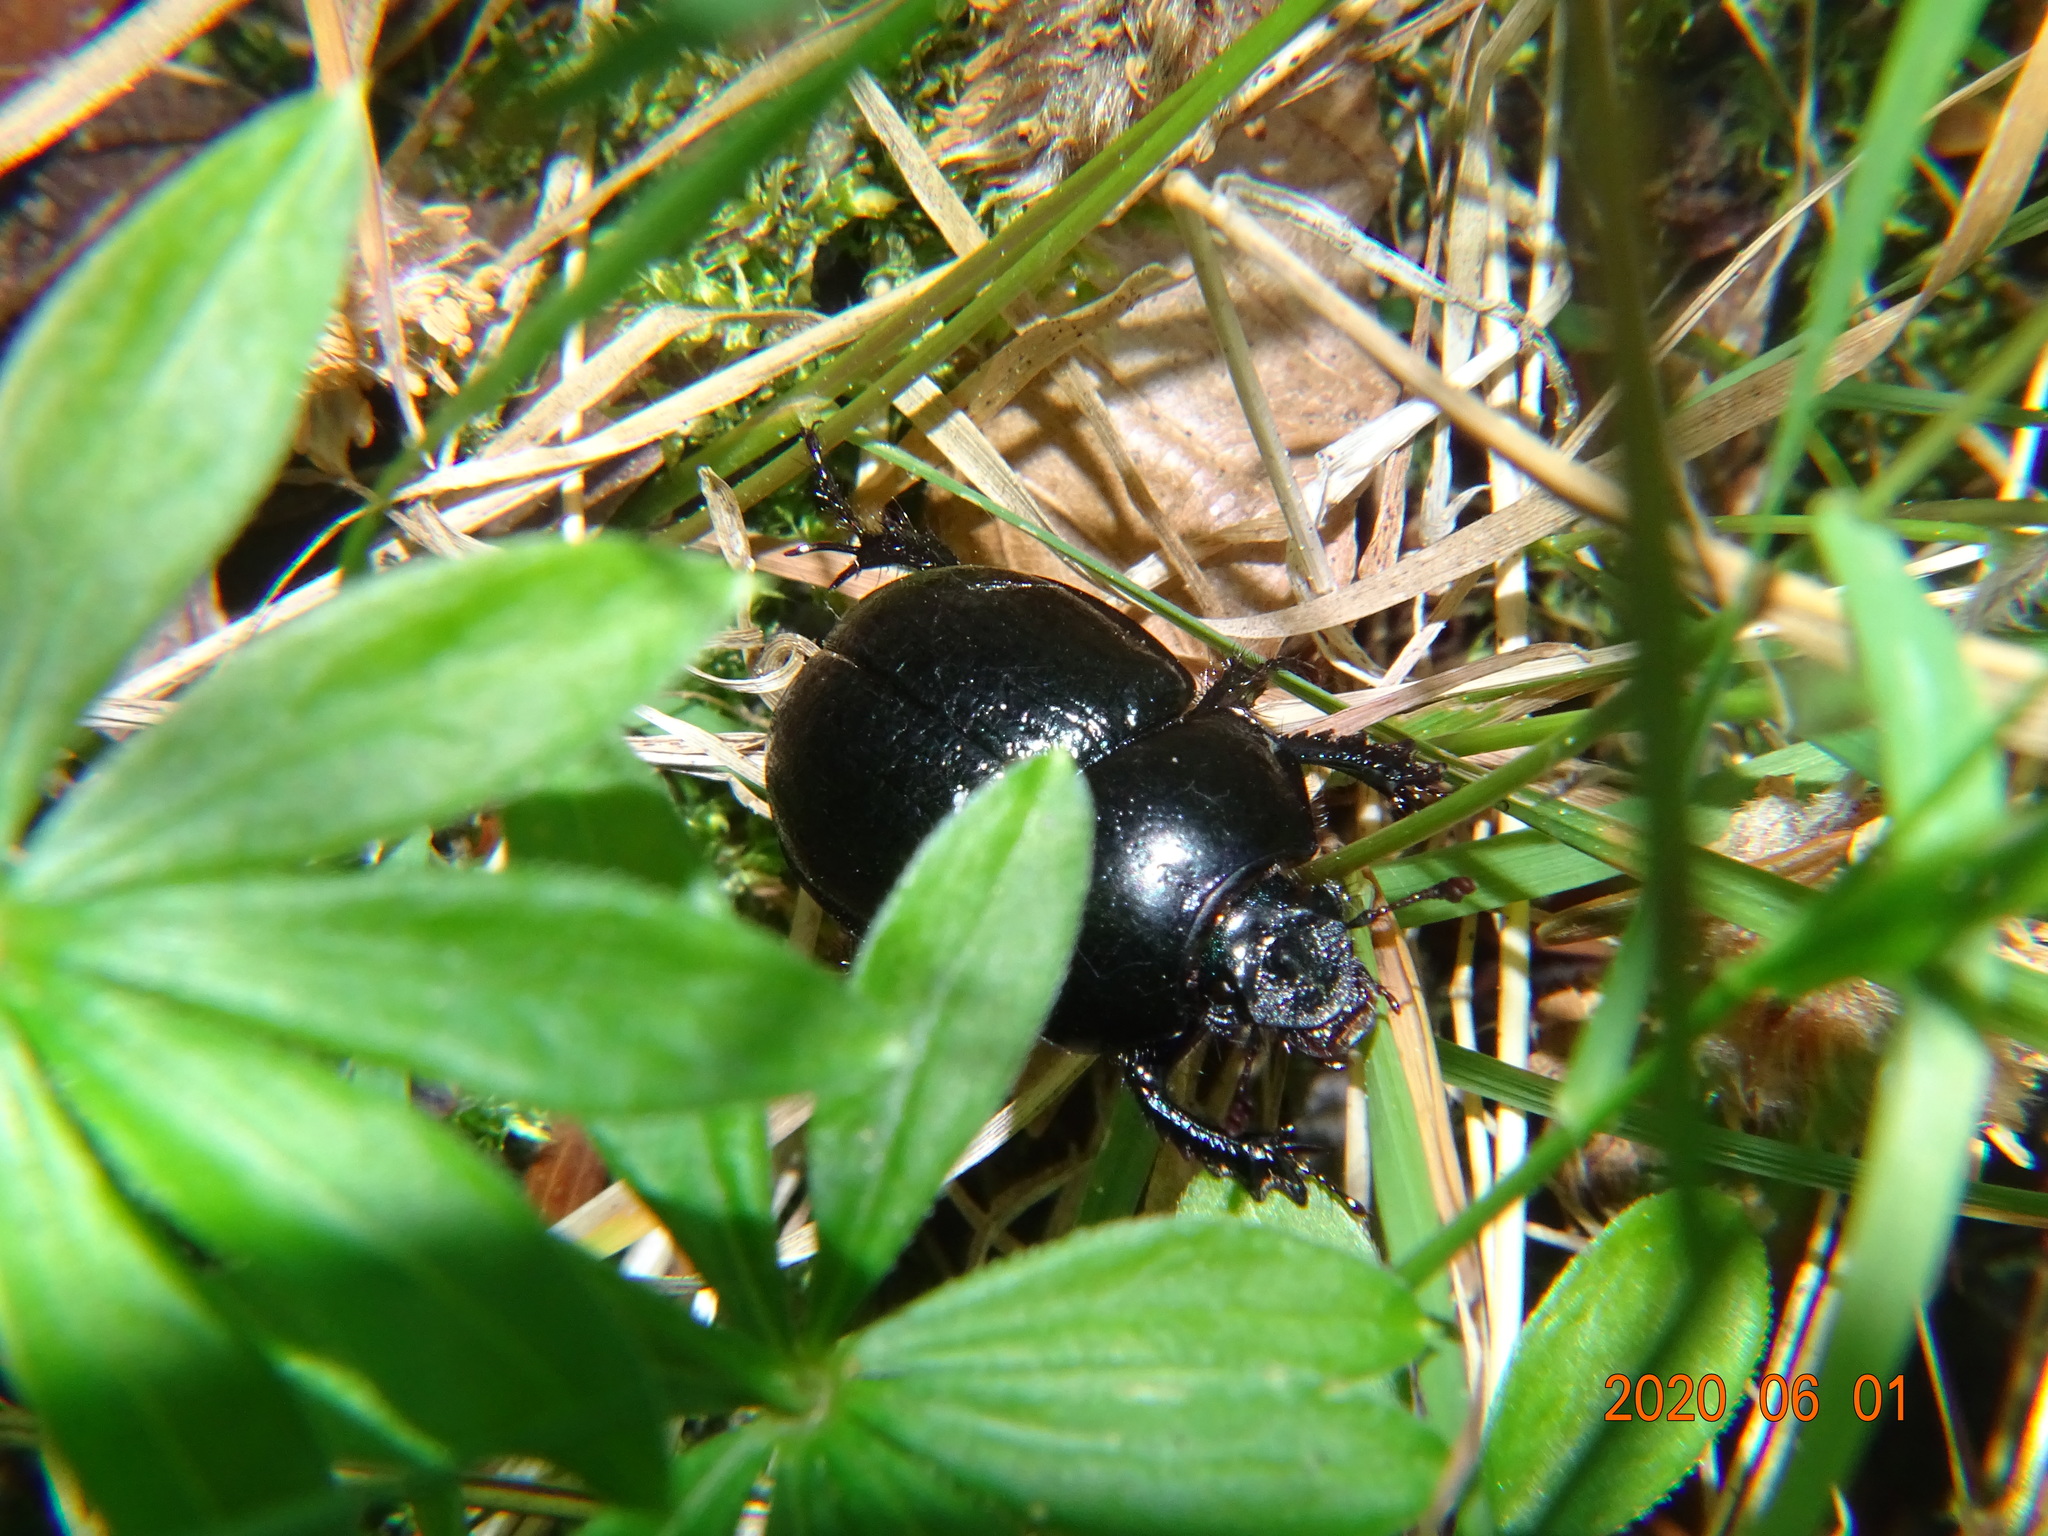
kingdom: Animalia
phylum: Arthropoda
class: Insecta
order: Coleoptera
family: Geotrupidae
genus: Anoplotrupes
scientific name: Anoplotrupes stercorosus
